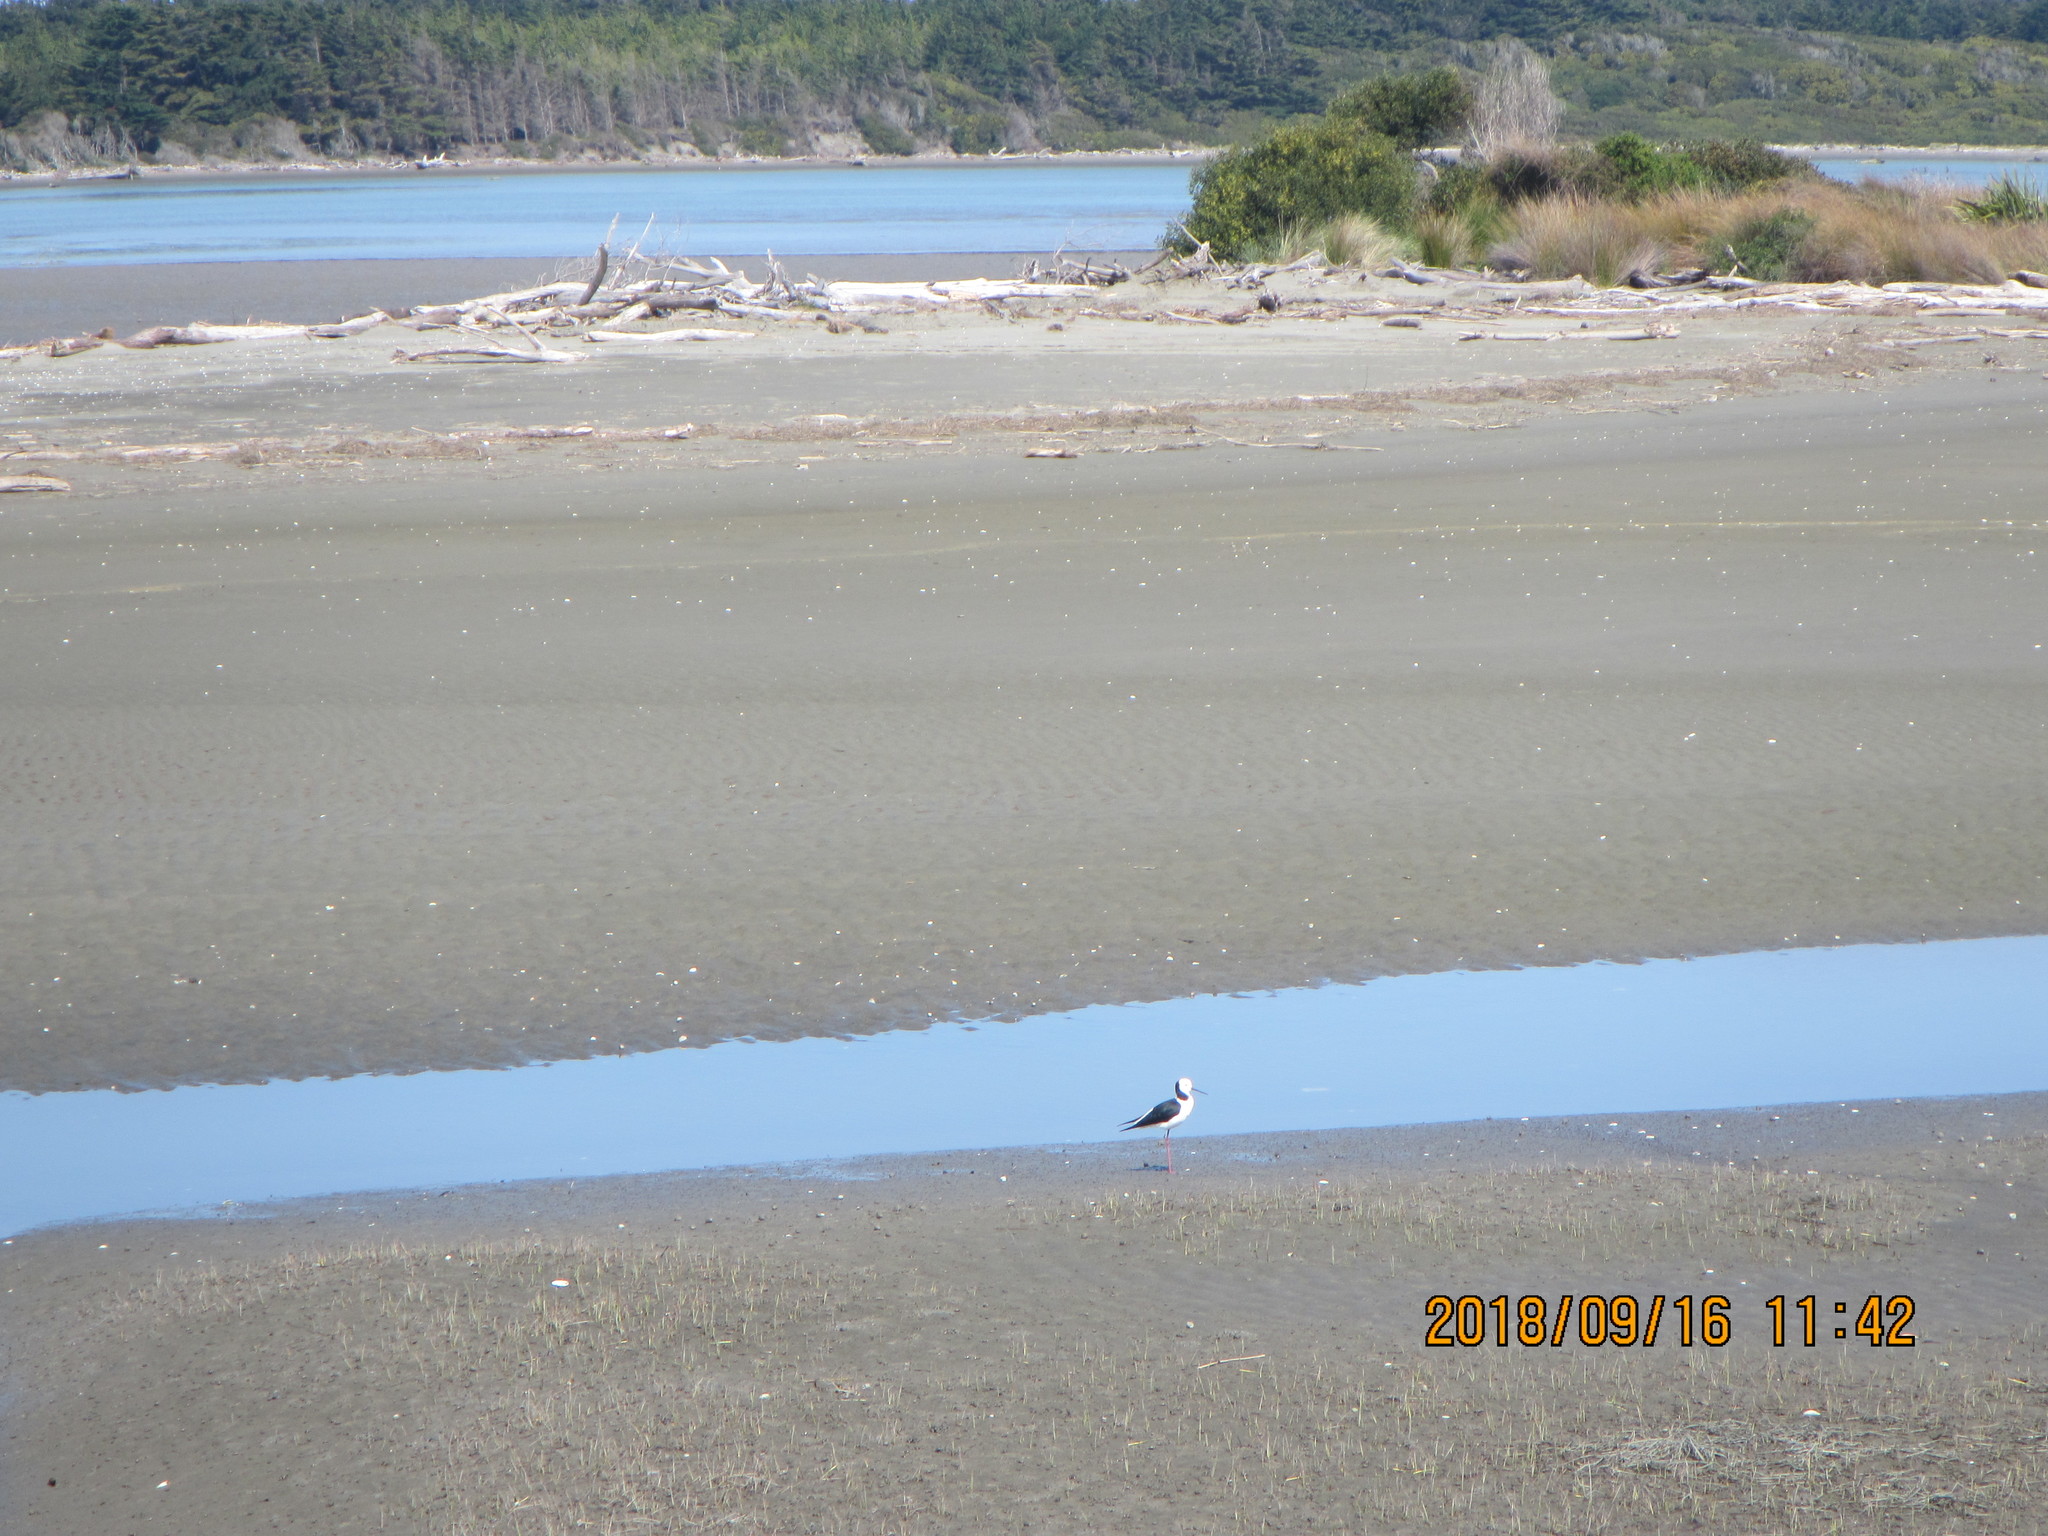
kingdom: Animalia
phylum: Chordata
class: Aves
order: Charadriiformes
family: Recurvirostridae
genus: Himantopus
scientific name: Himantopus leucocephalus
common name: White-headed stilt
